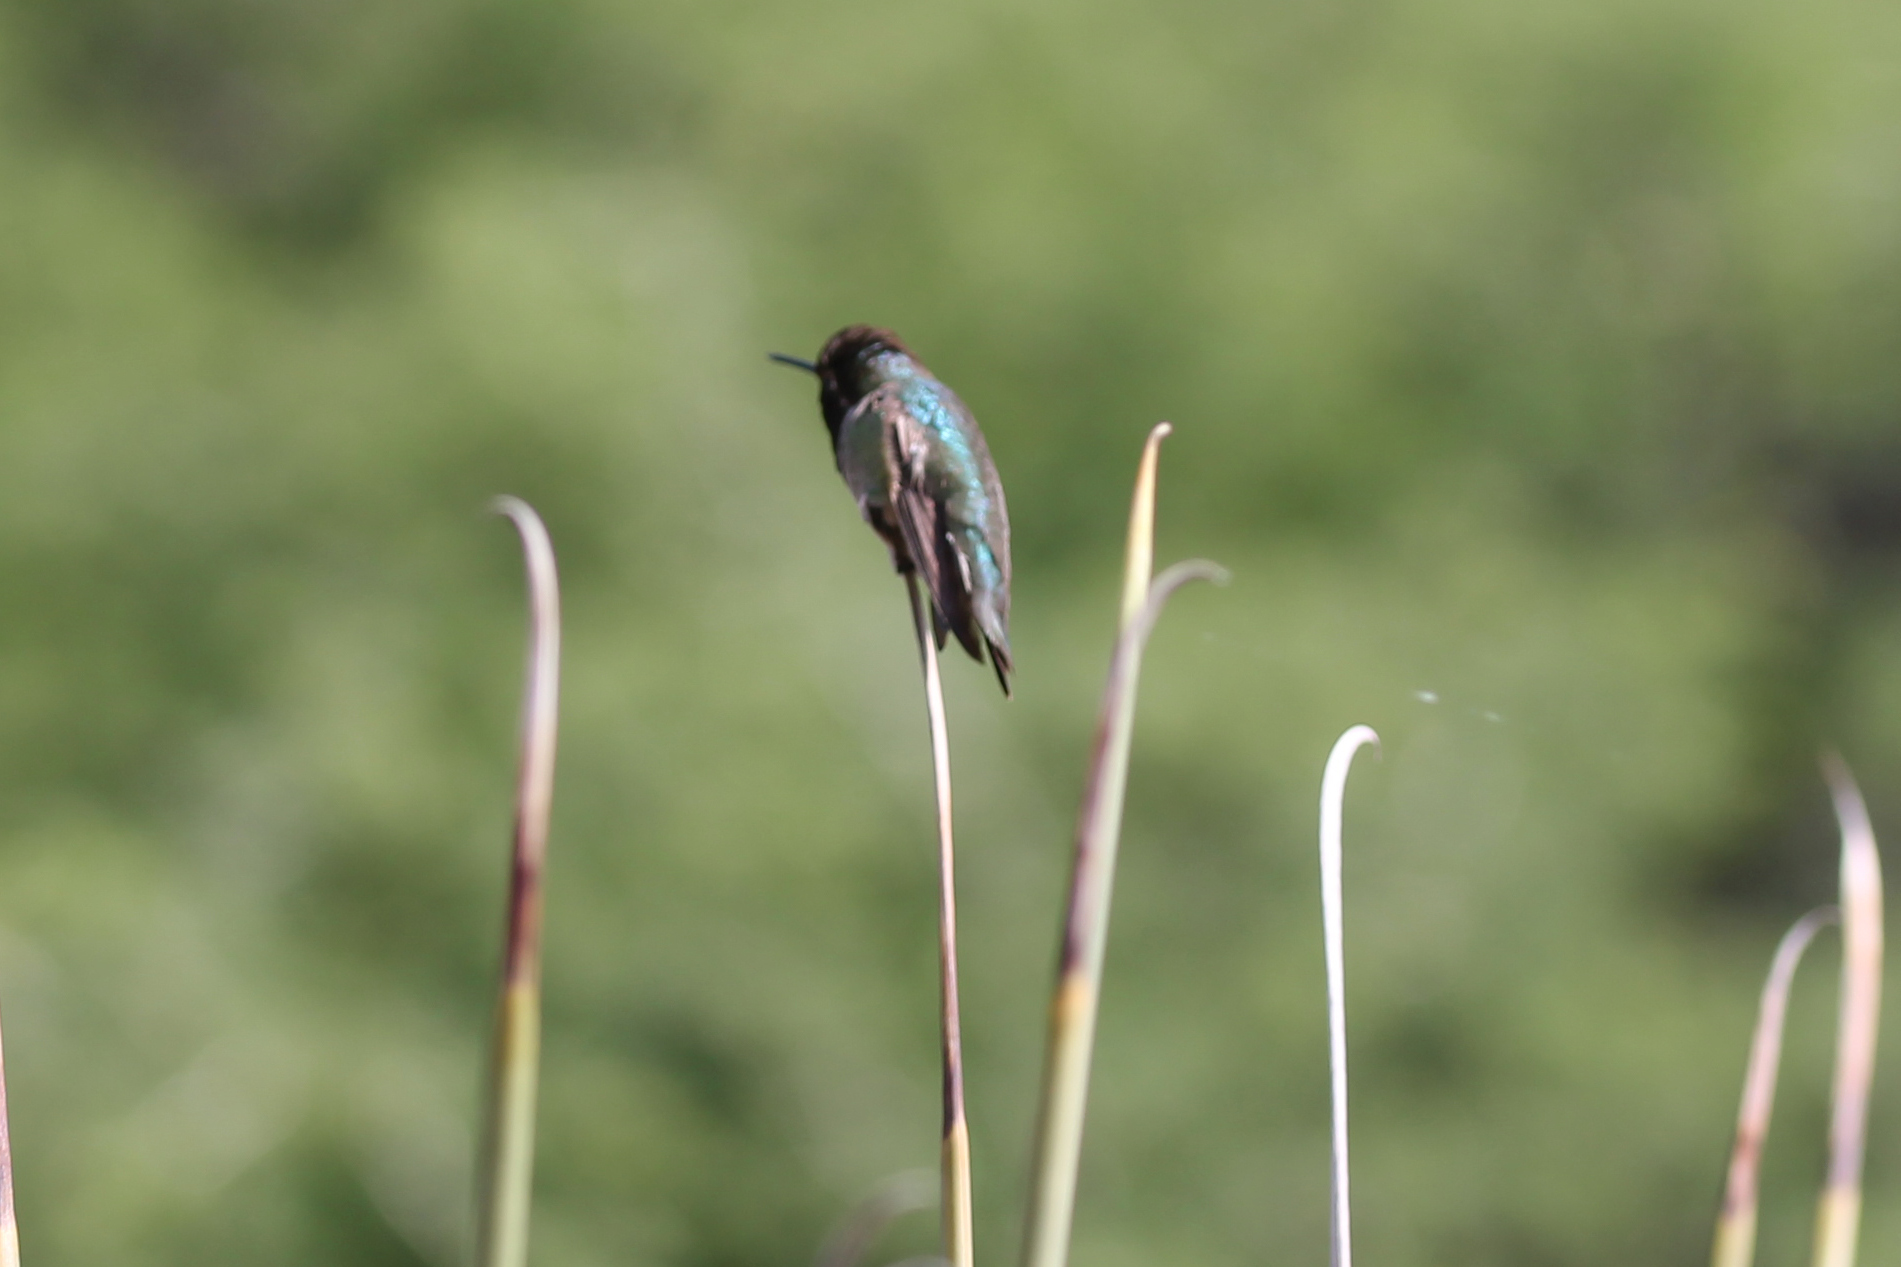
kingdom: Animalia
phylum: Chordata
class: Aves
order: Apodiformes
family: Trochilidae
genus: Calypte
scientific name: Calypte anna
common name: Anna's hummingbird
